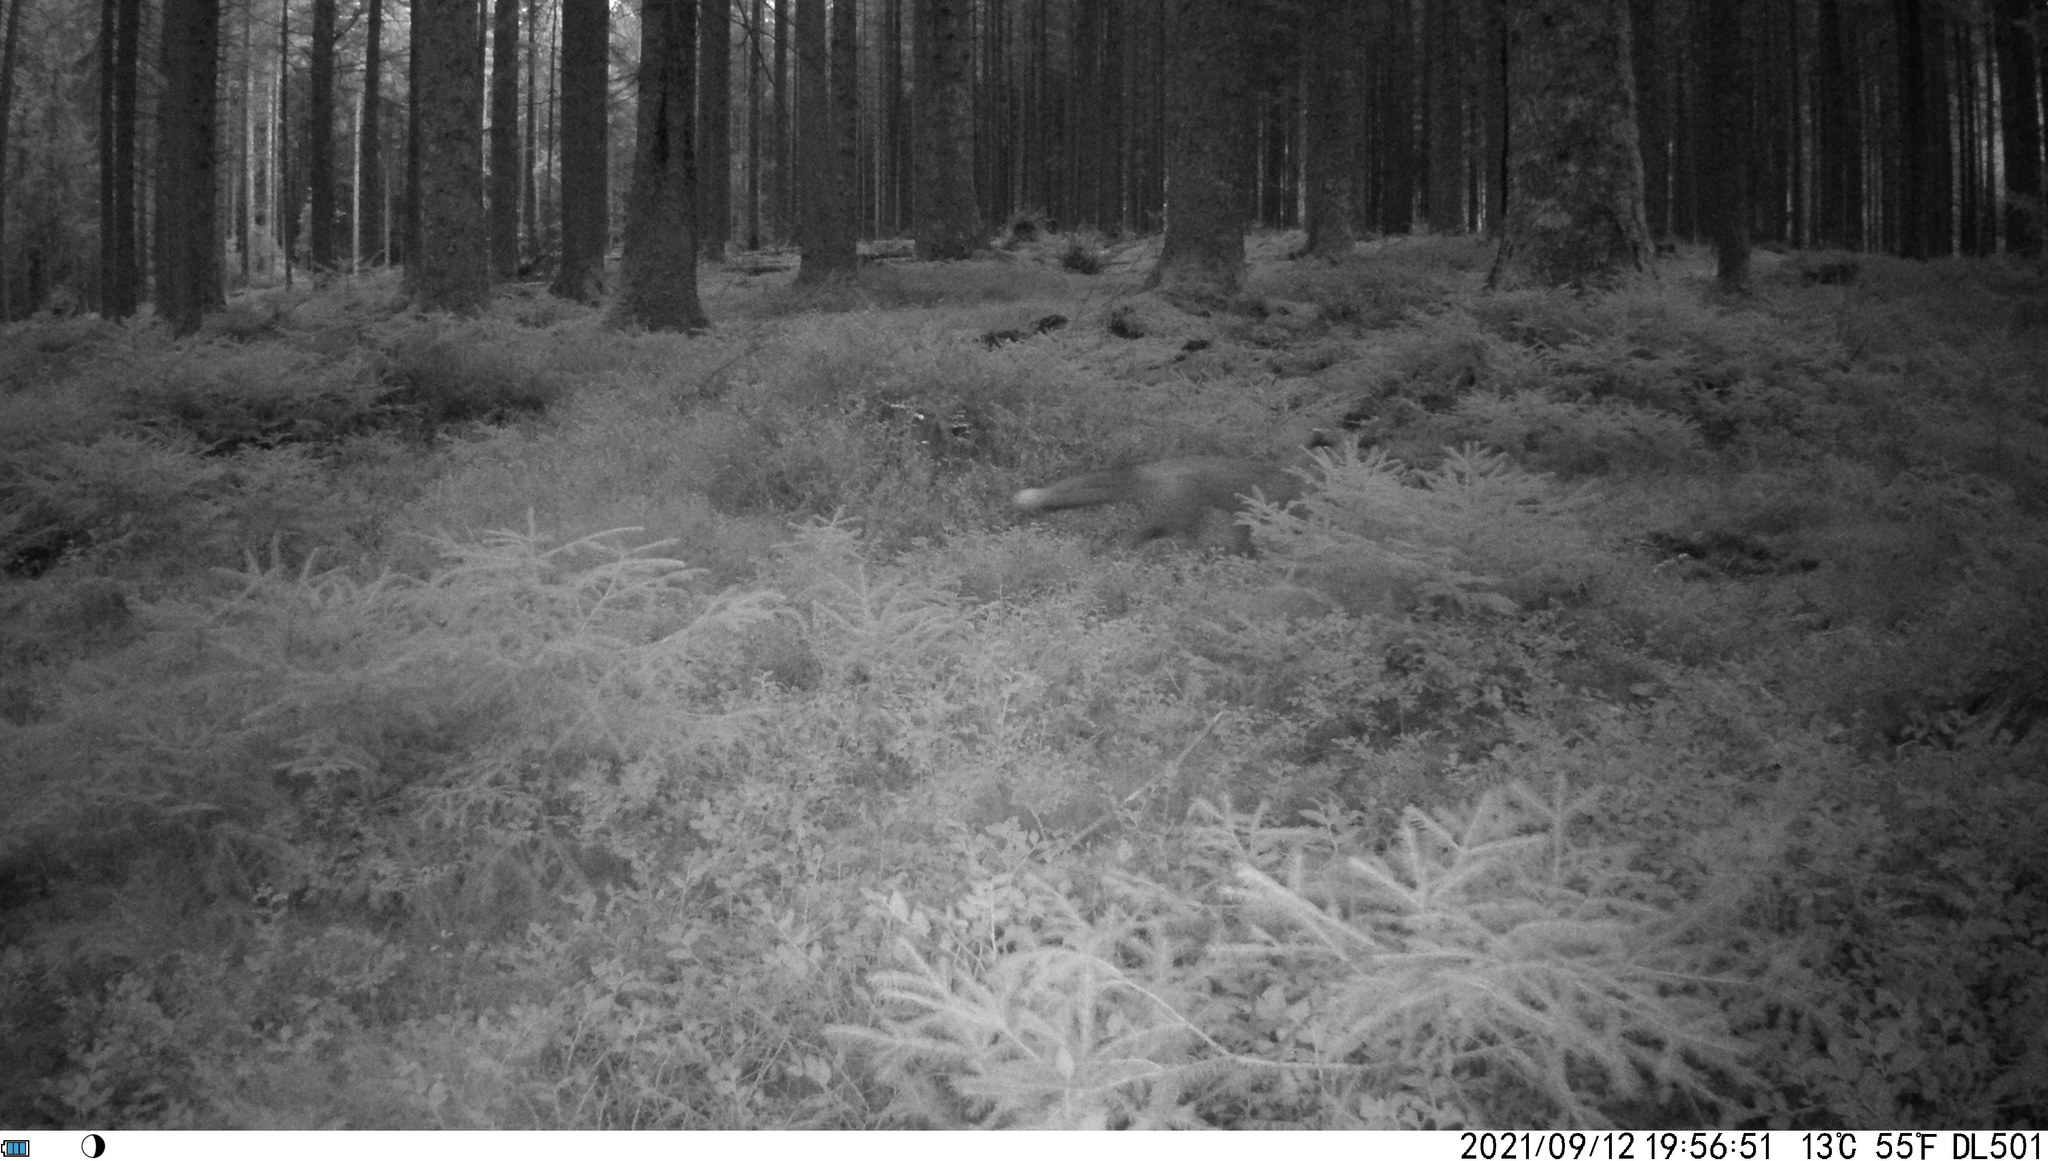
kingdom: Animalia
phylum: Chordata
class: Mammalia
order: Carnivora
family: Canidae
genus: Vulpes
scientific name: Vulpes vulpes
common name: Red fox
